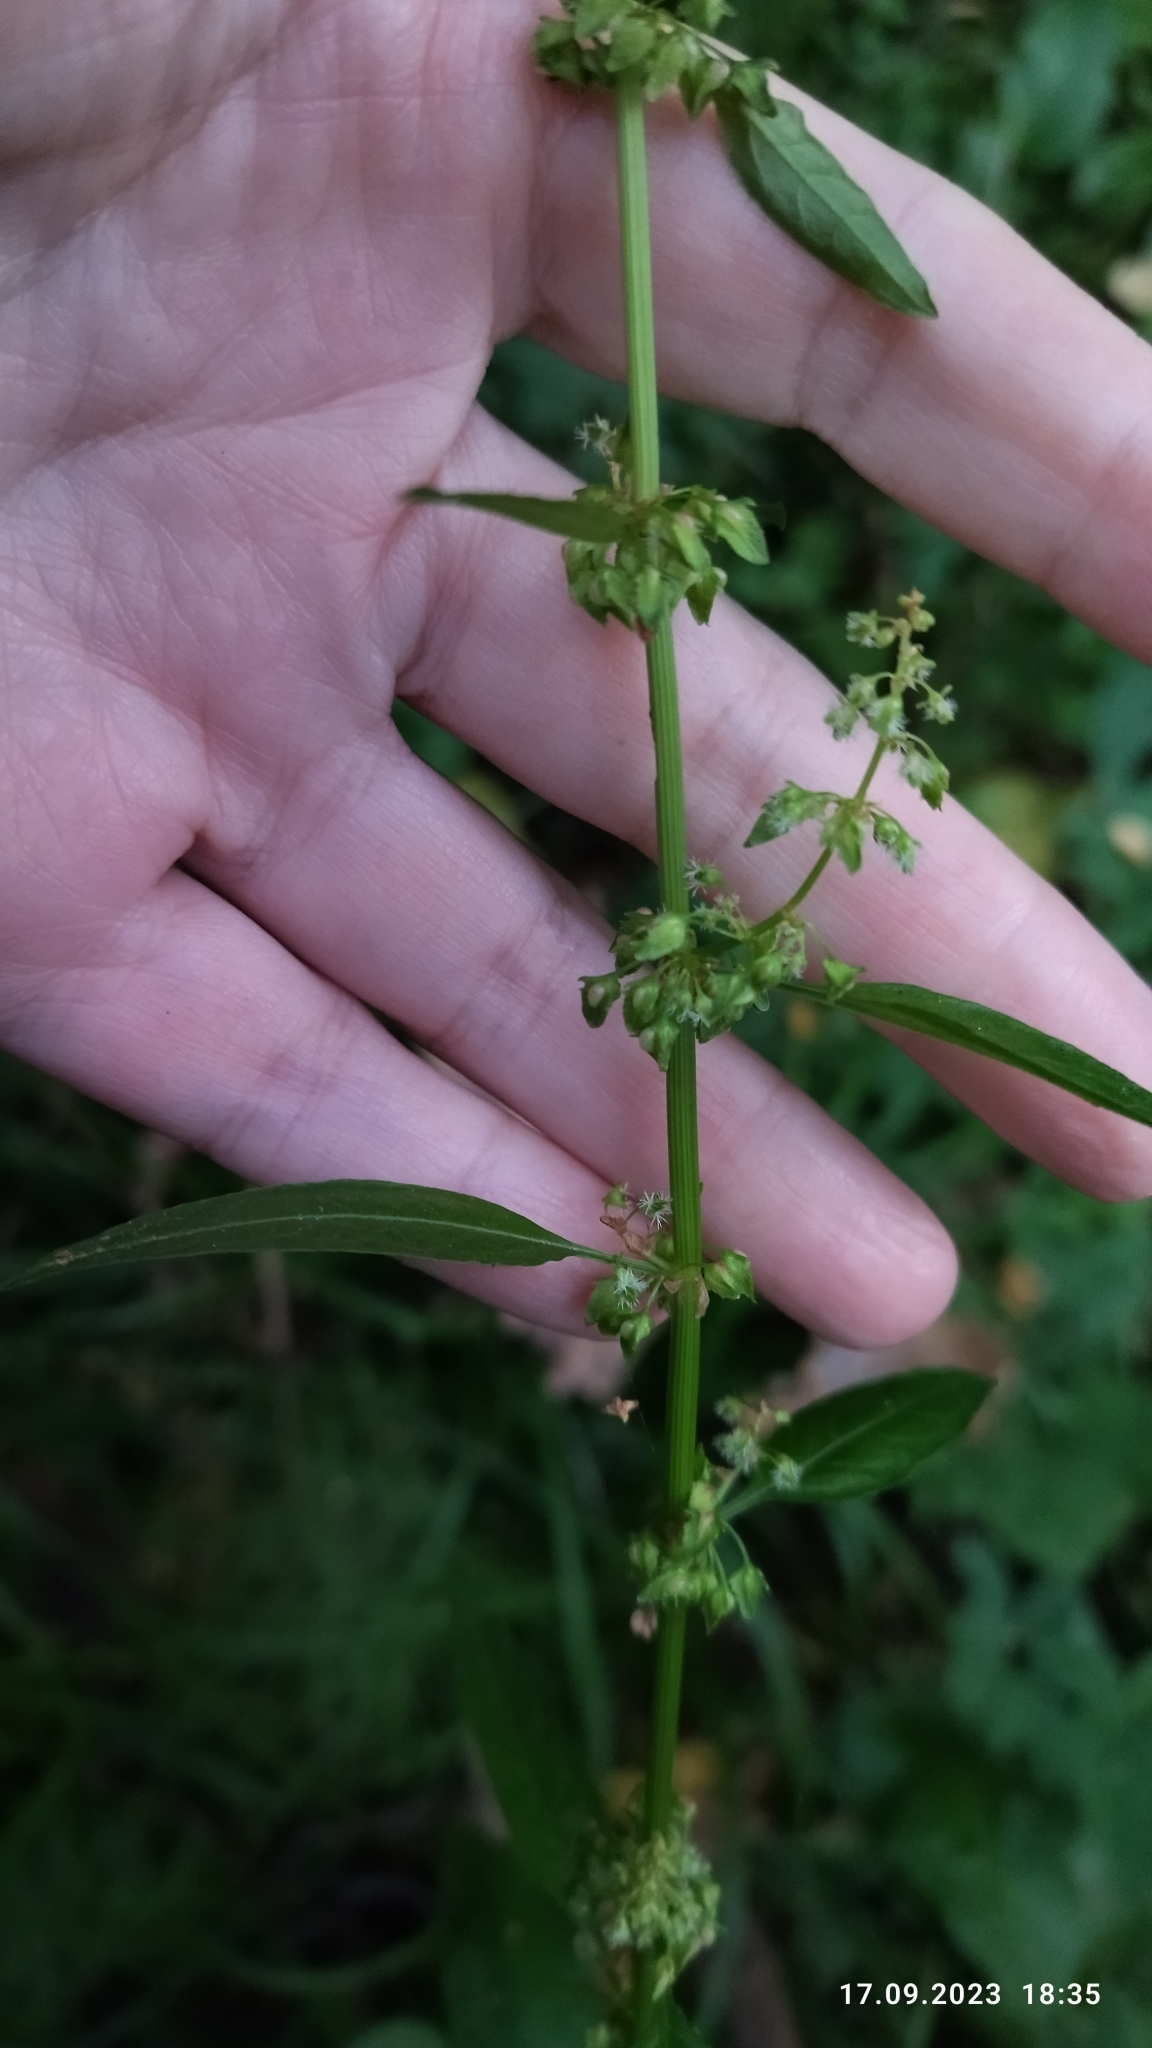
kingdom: Plantae
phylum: Tracheophyta
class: Magnoliopsida
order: Caryophyllales
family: Polygonaceae
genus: Rumex
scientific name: Rumex obtusifolius
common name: Bitter dock
